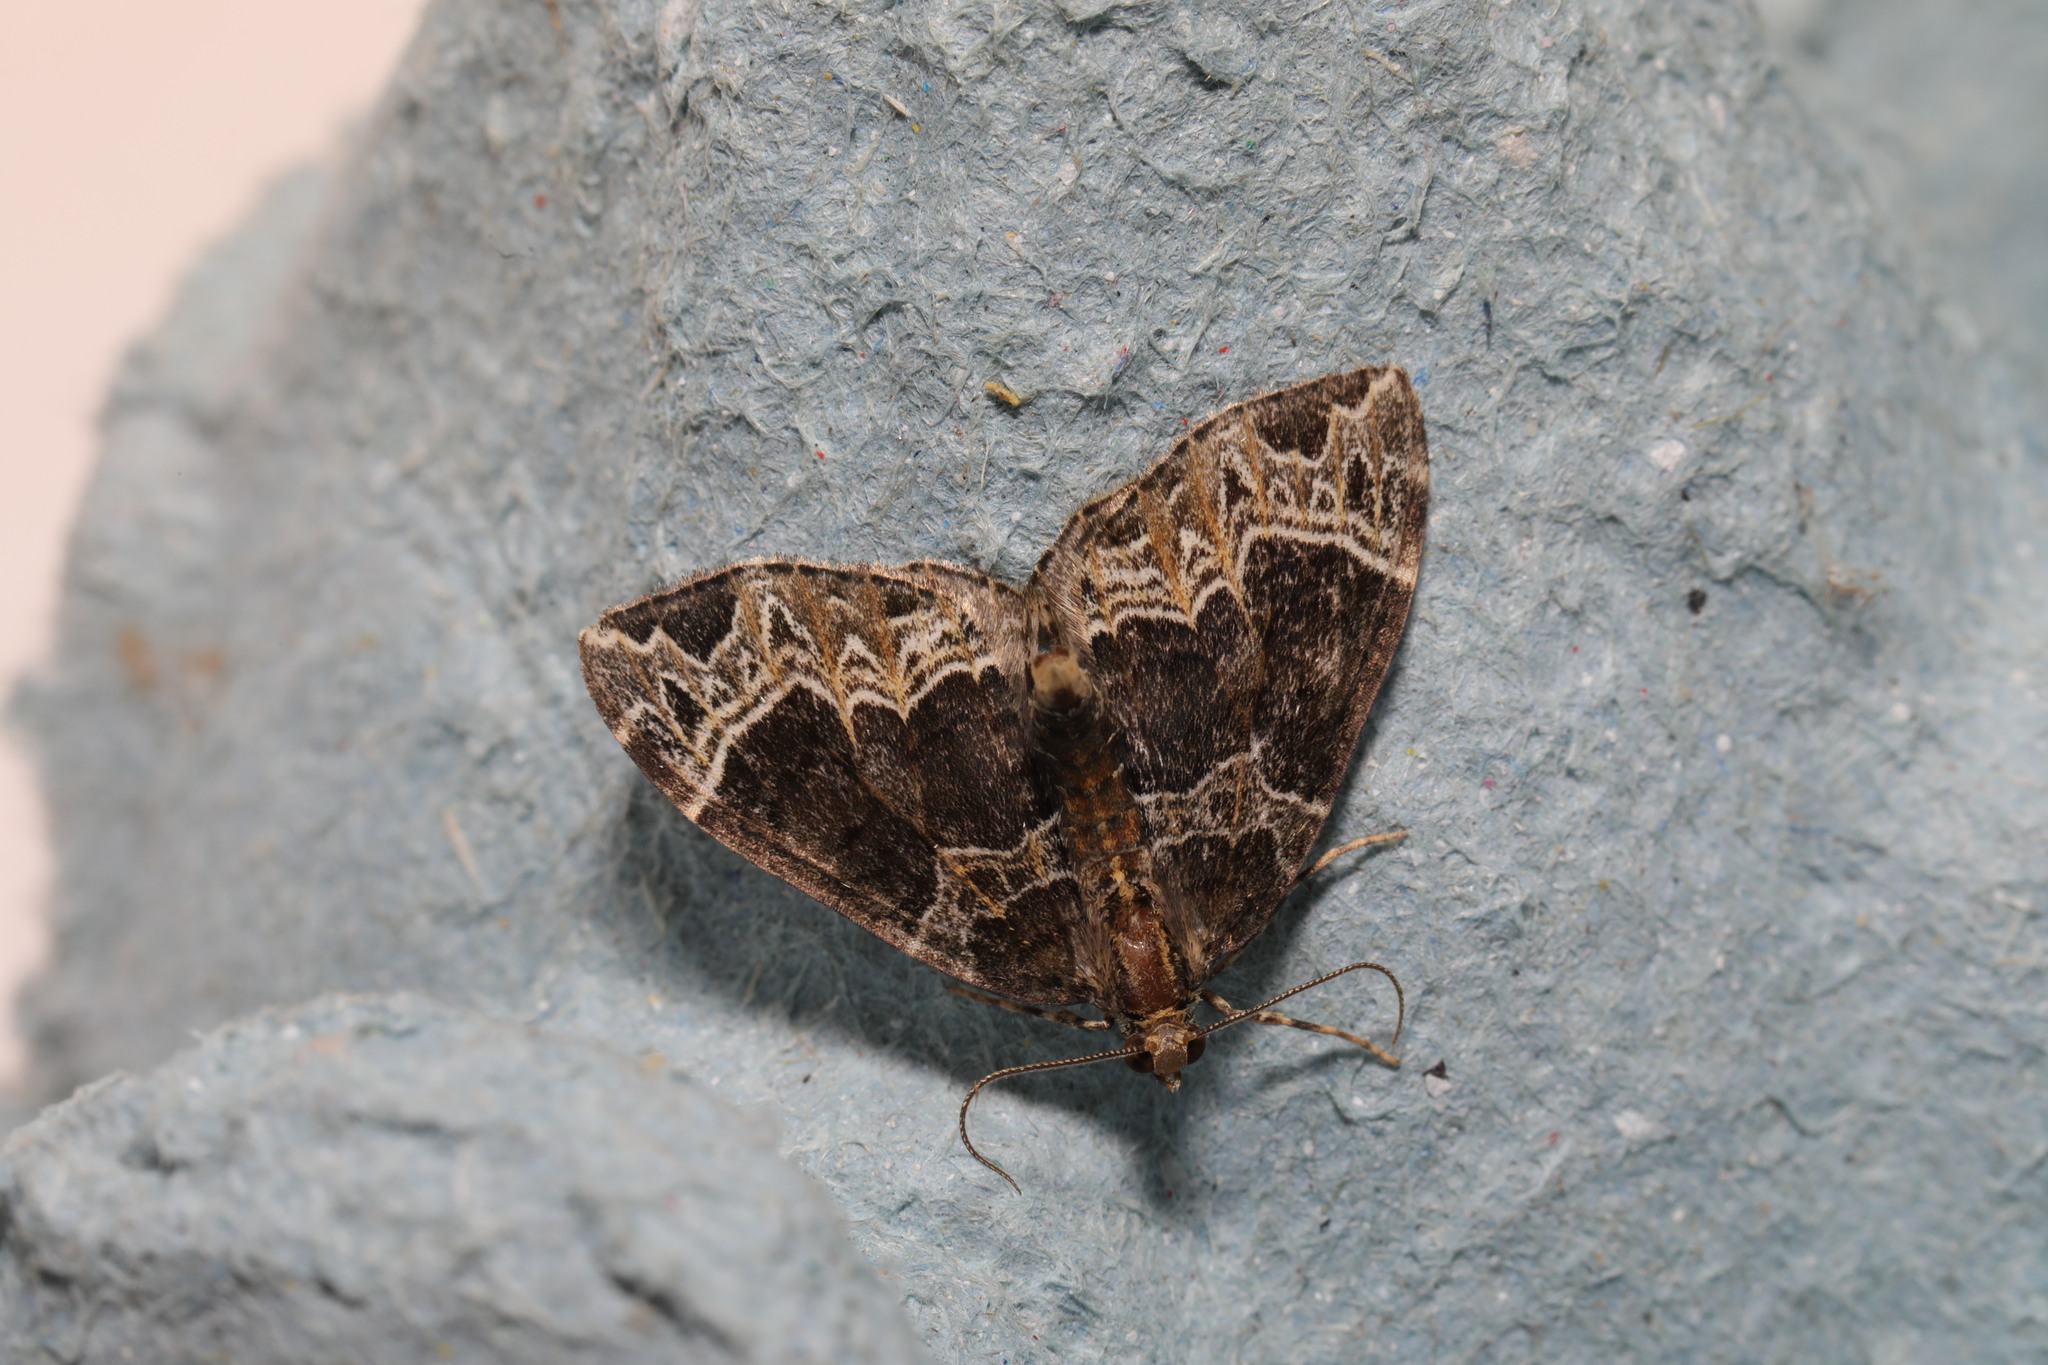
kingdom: Animalia
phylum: Arthropoda
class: Insecta
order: Lepidoptera
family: Geometridae
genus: Ecliptopera
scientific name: Ecliptopera silaceata
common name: Small phoenix
